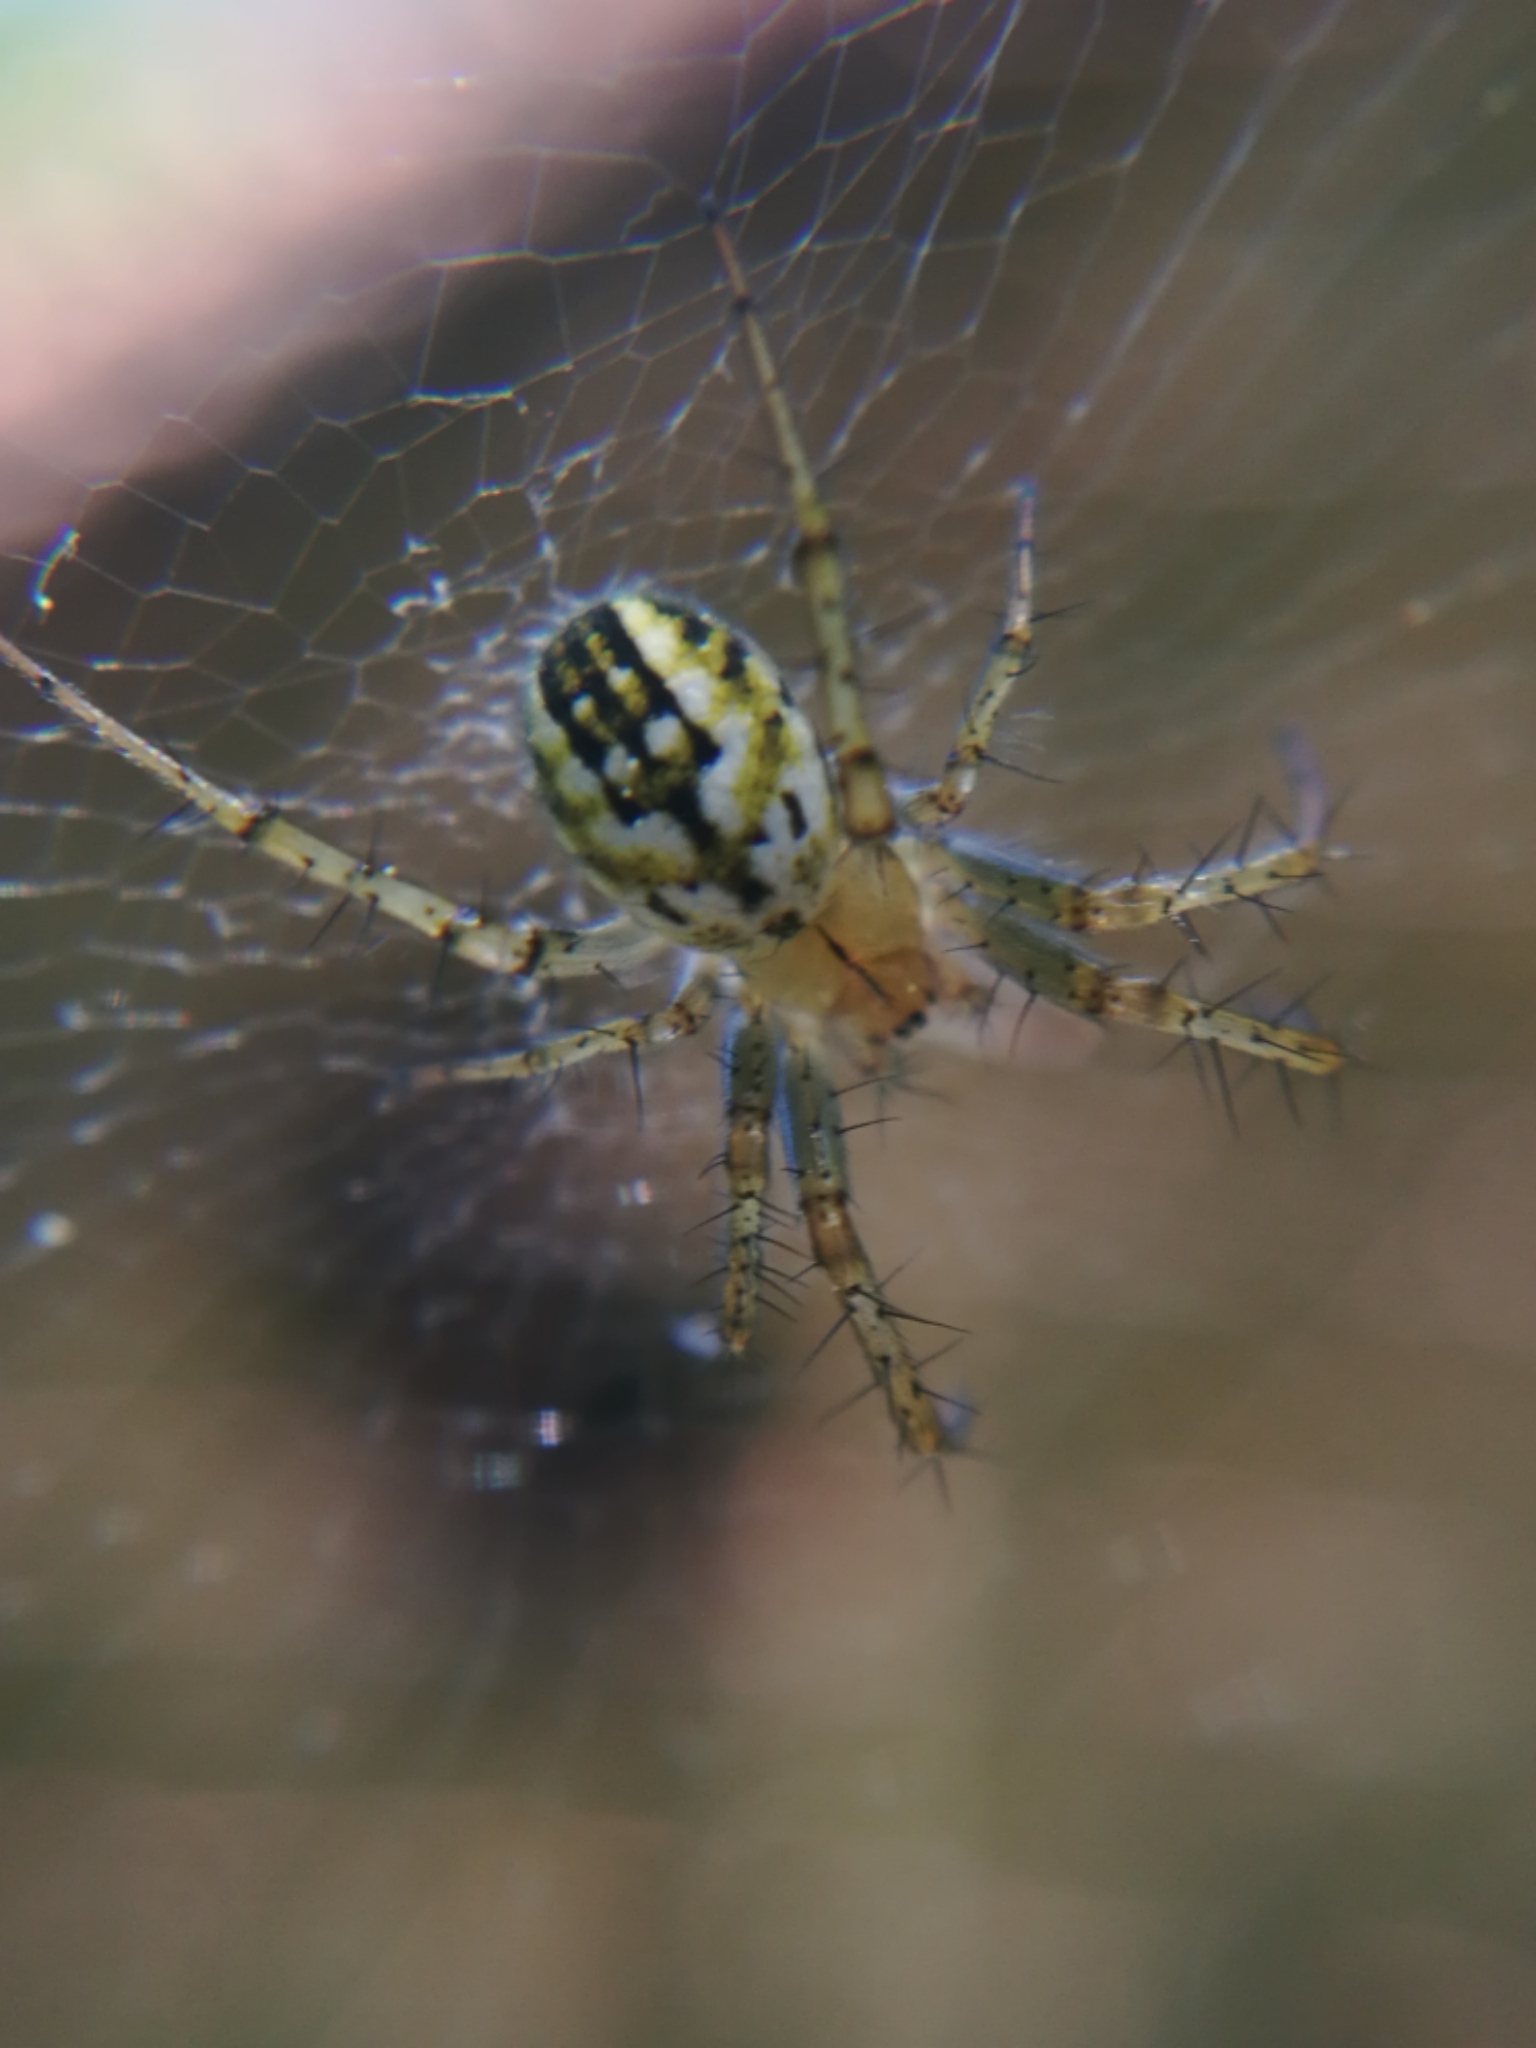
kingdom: Animalia
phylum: Arthropoda
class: Arachnida
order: Araneae
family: Araneidae
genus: Mangora
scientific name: Mangora acalypha
